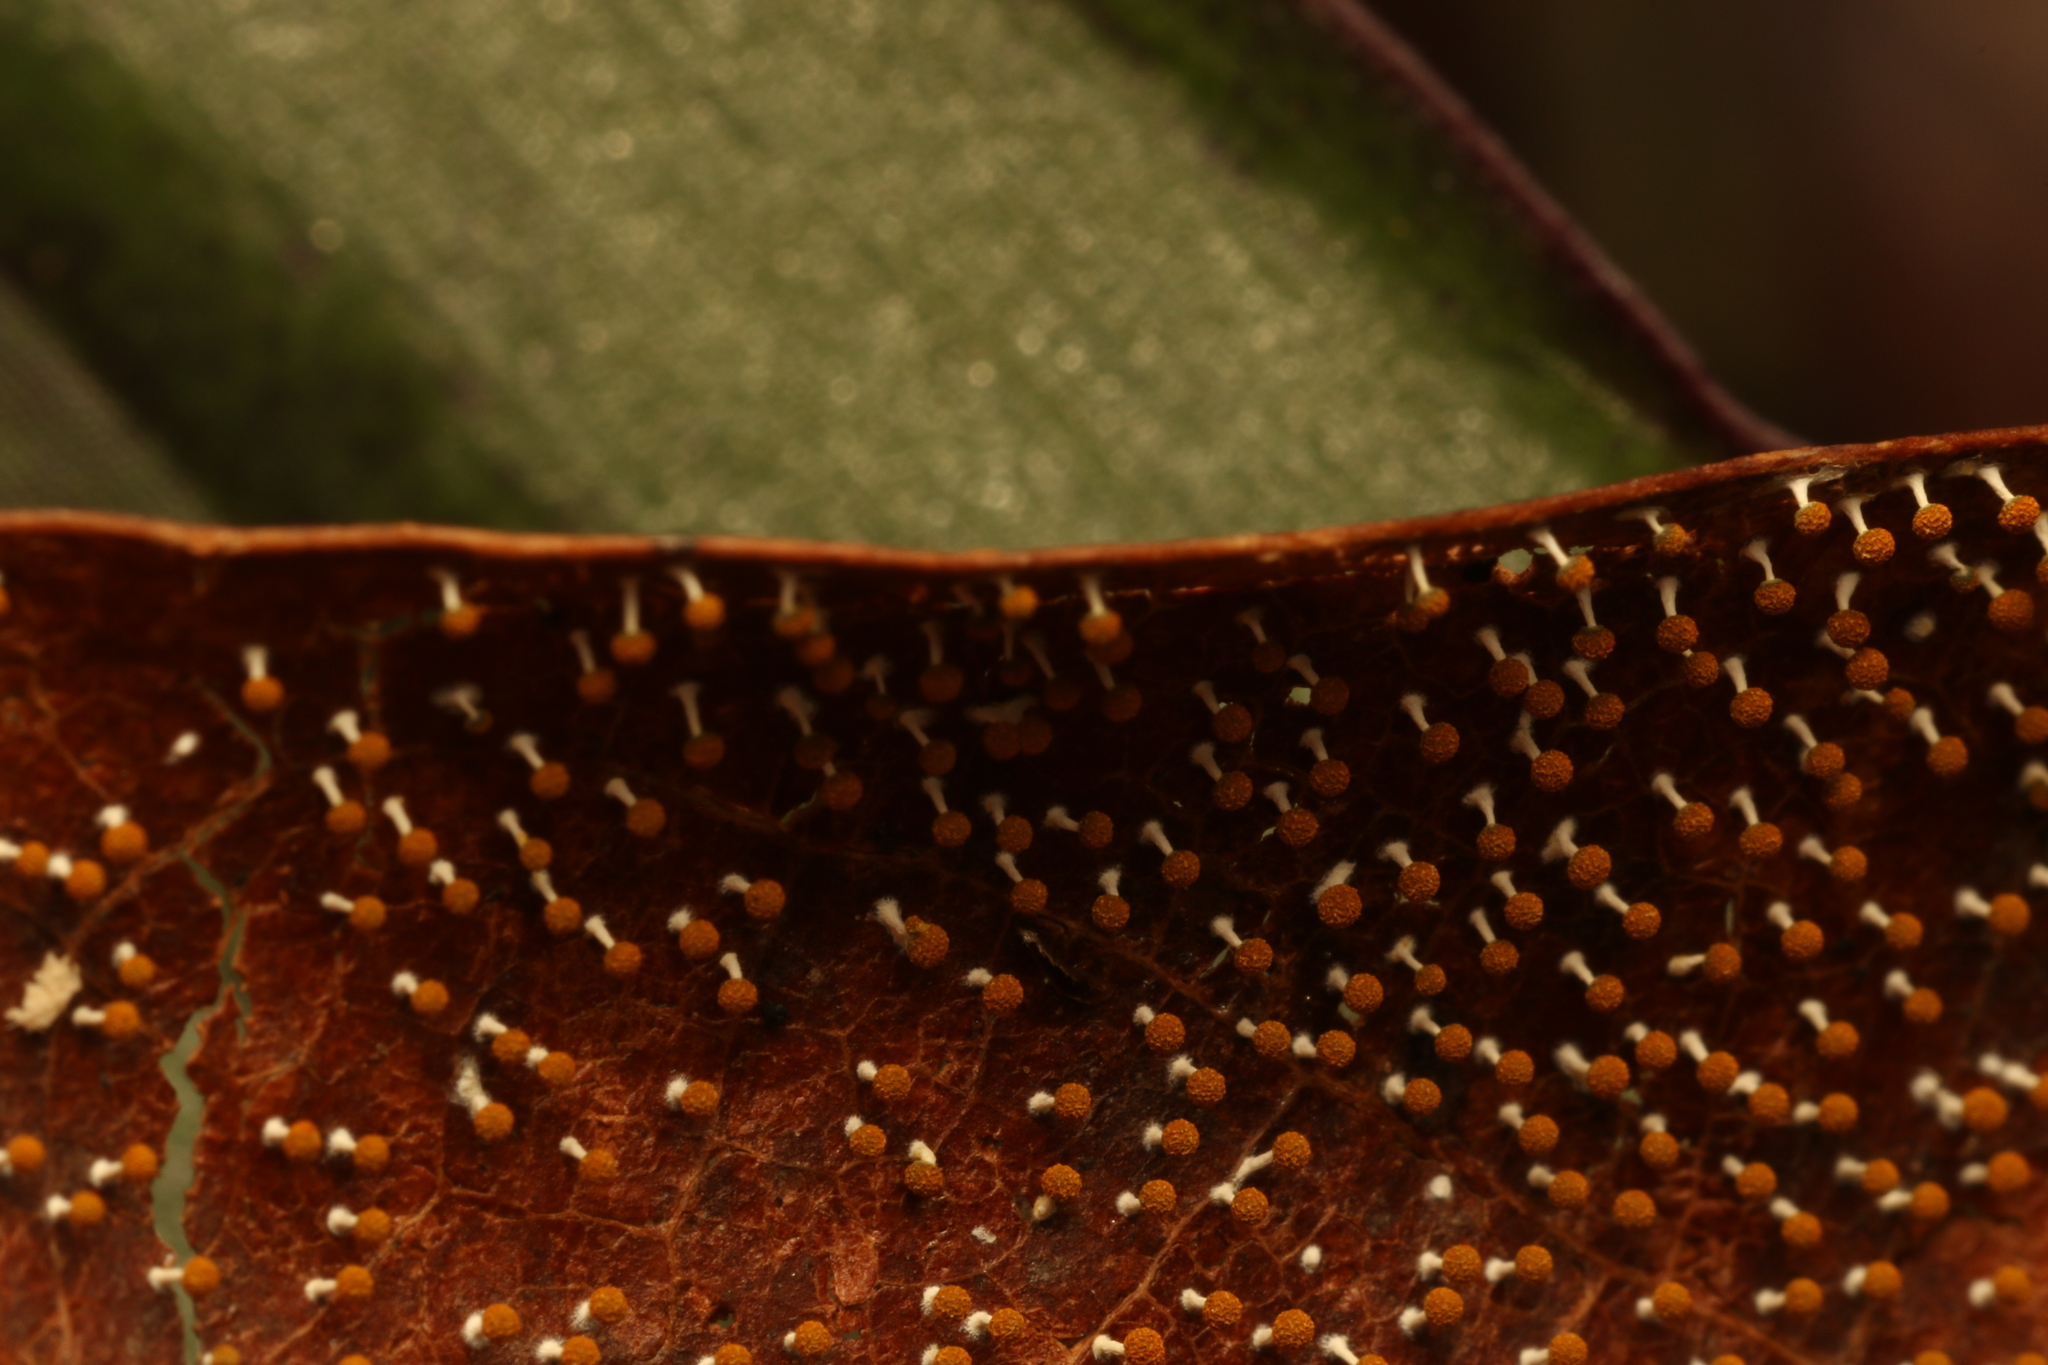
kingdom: Protozoa
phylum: Mycetozoa
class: Myxomycetes
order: Physarales
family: Physaraceae
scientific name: Physaraceae
